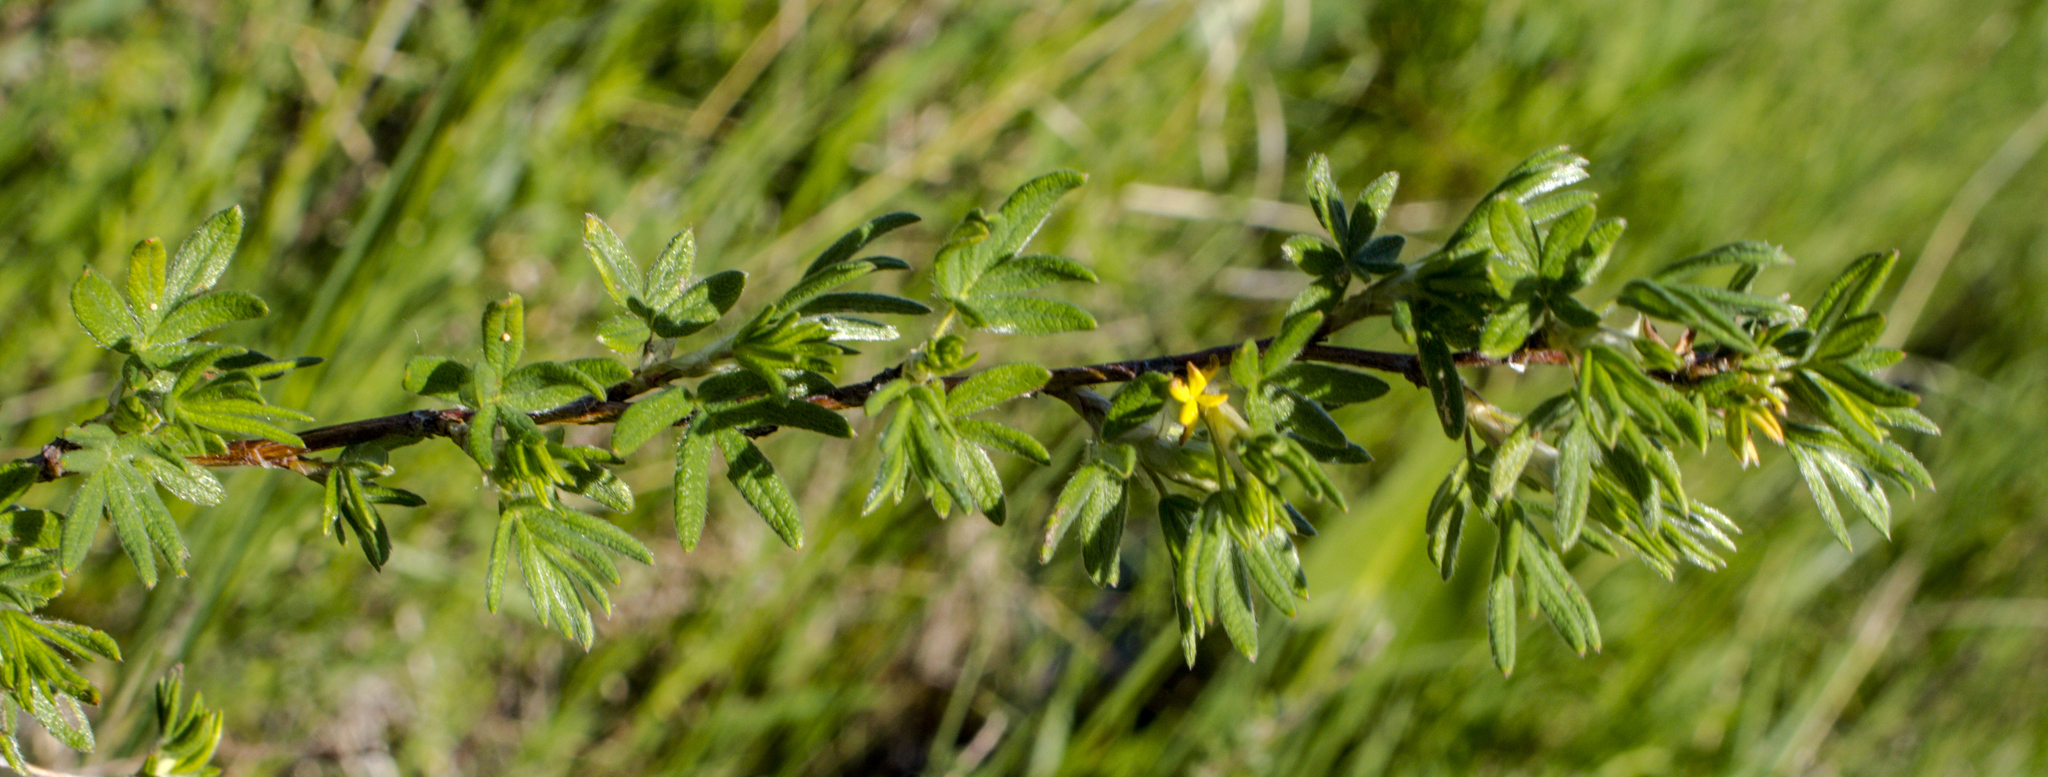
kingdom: Plantae
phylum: Tracheophyta
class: Magnoliopsida
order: Rosales
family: Rosaceae
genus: Dasiphora
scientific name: Dasiphora fruticosa
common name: Shrubby cinquefoil
